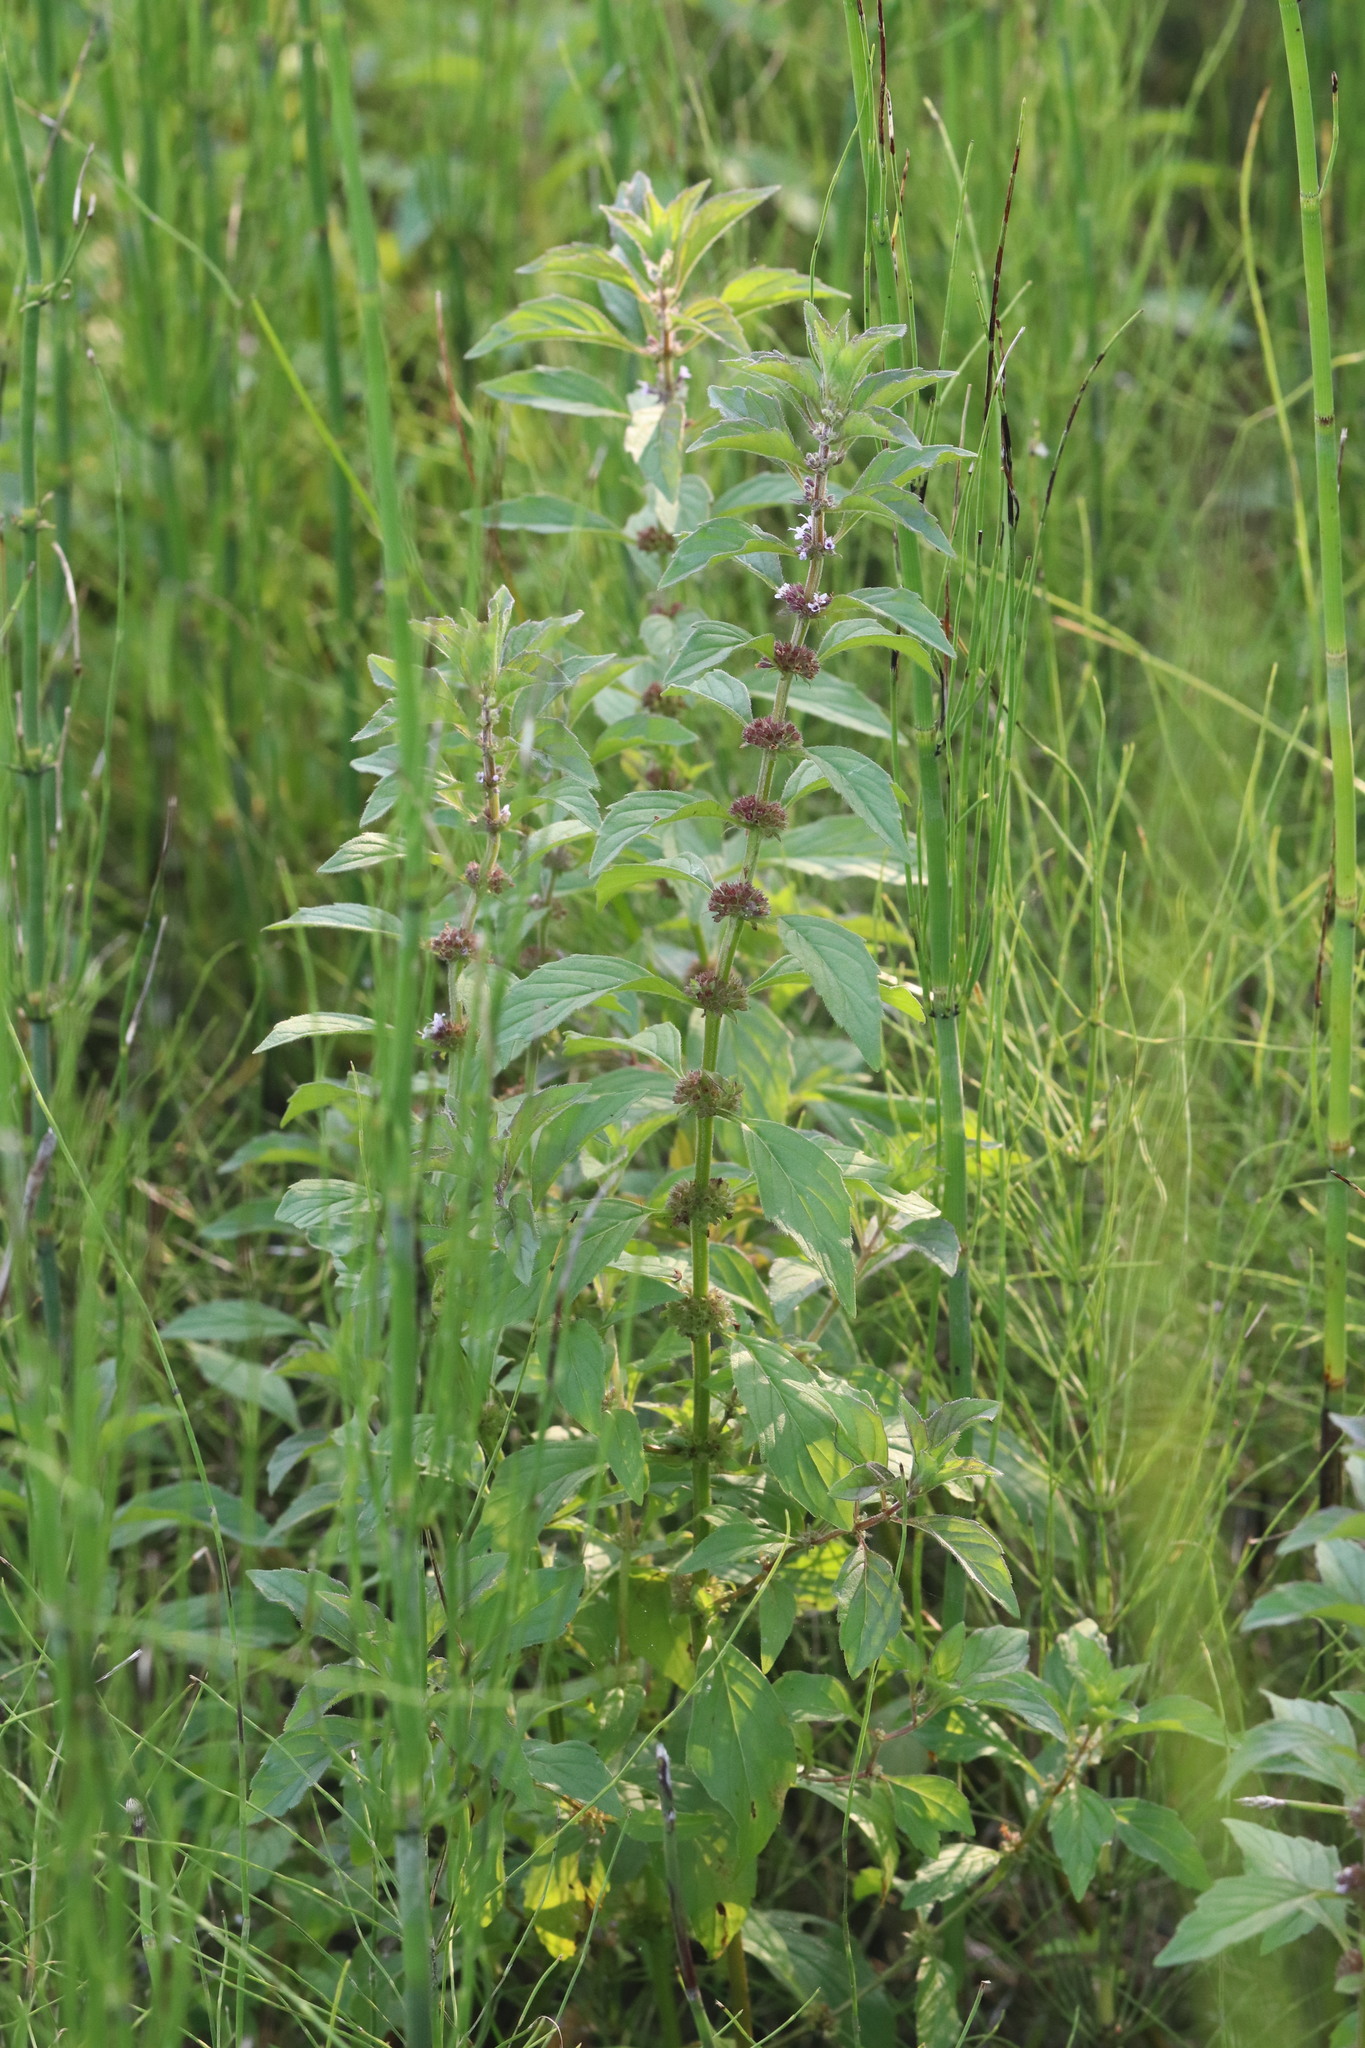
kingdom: Plantae
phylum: Tracheophyta
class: Magnoliopsida
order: Lamiales
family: Lamiaceae
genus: Mentha
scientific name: Mentha arvensis
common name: Corn mint
